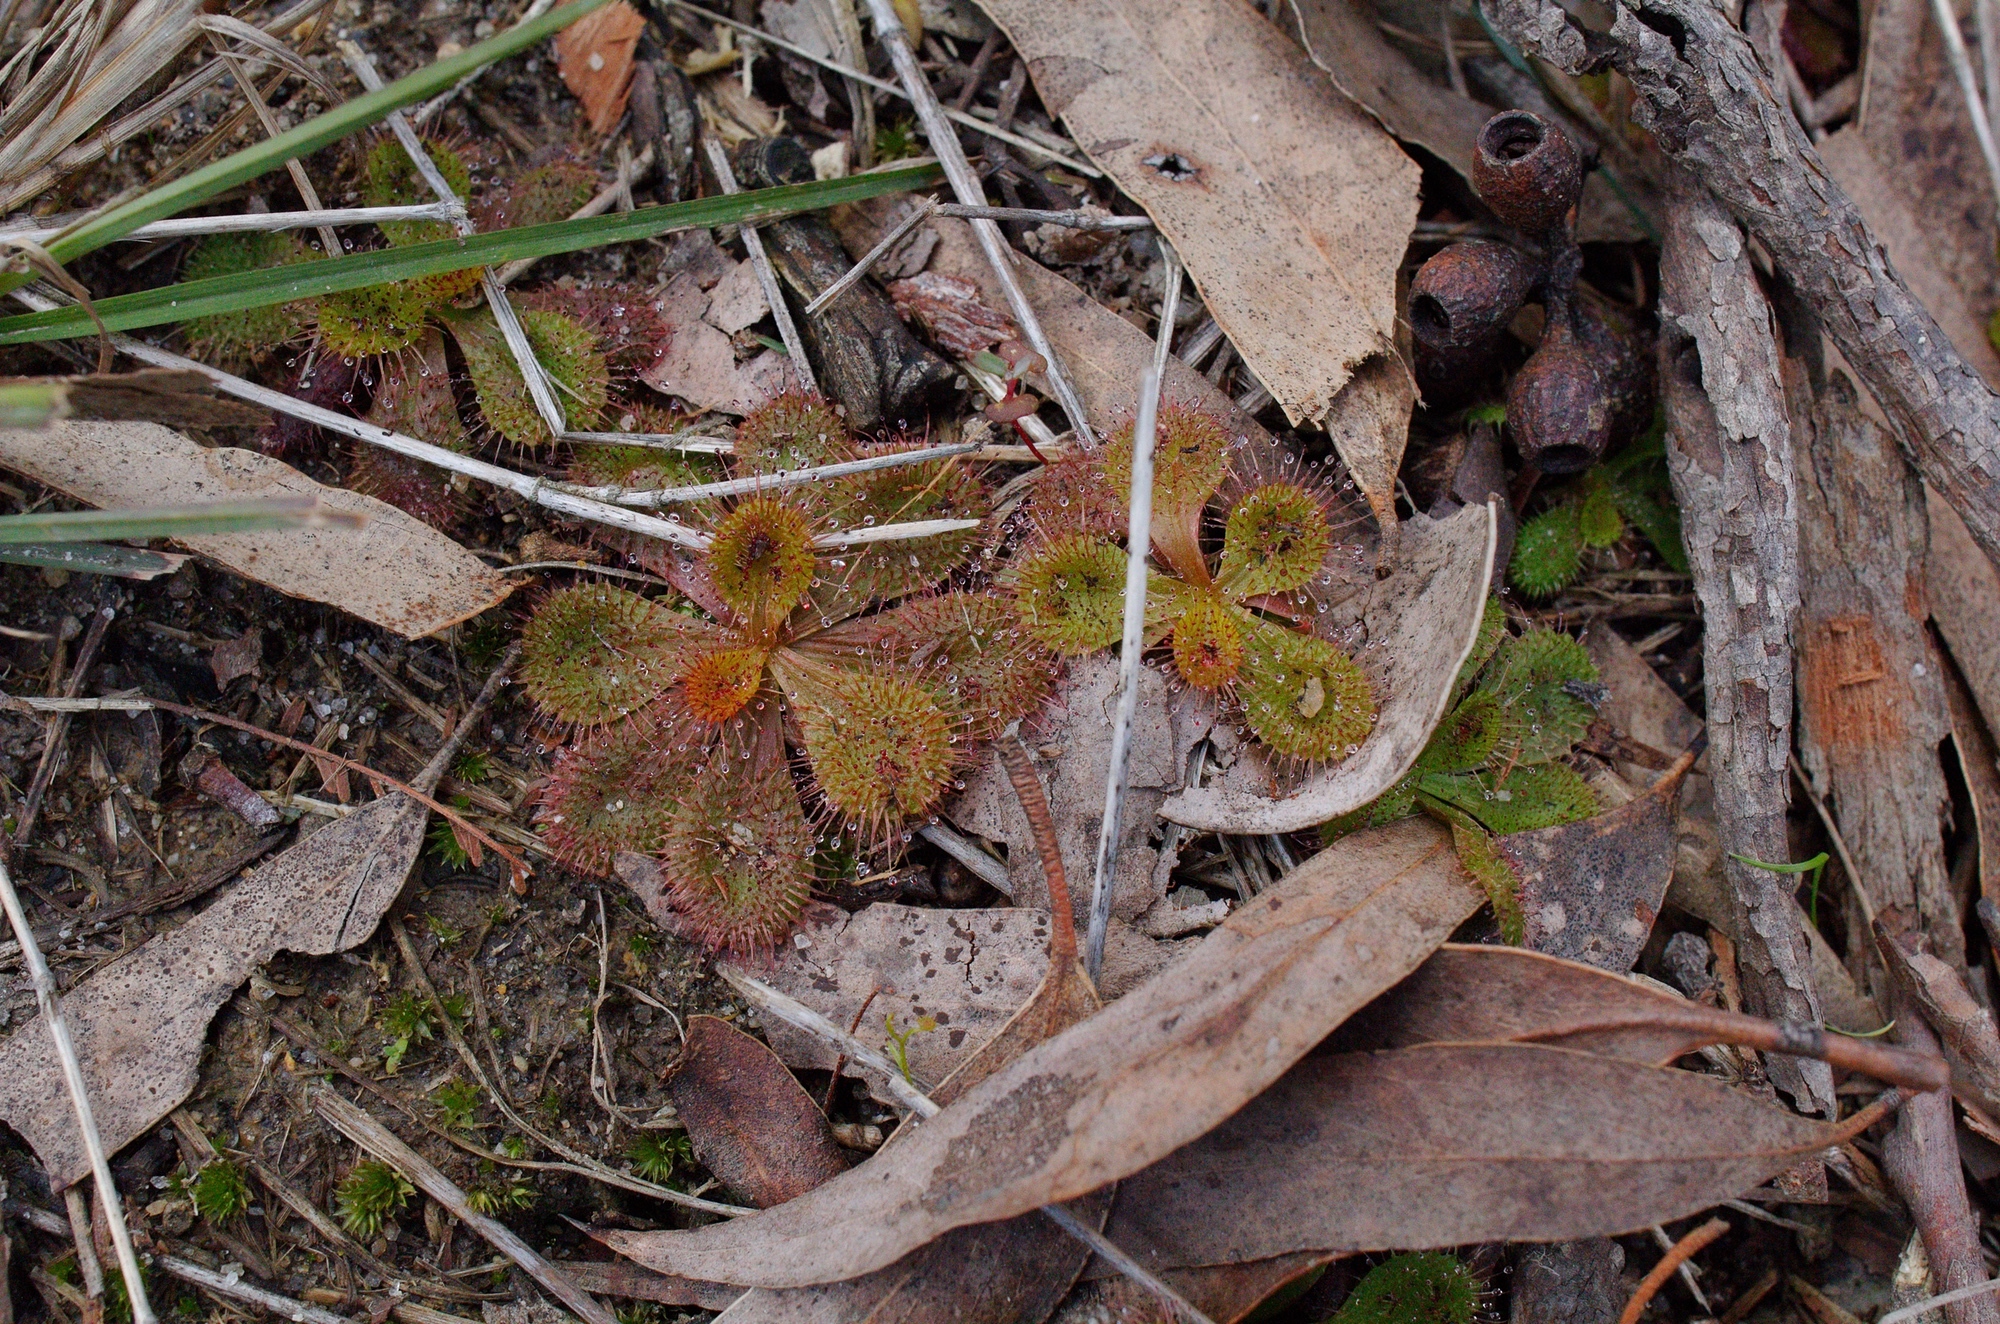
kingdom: Plantae
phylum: Tracheophyta
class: Magnoliopsida
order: Caryophyllales
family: Droseraceae
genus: Drosera
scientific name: Drosera aberrans
